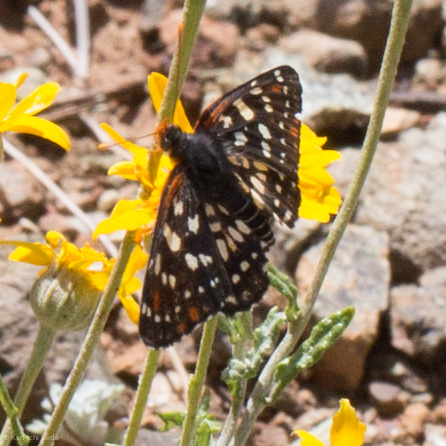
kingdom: Animalia
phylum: Arthropoda
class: Insecta
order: Lepidoptera
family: Nymphalidae
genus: Thessalia
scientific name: Thessalia leanira
